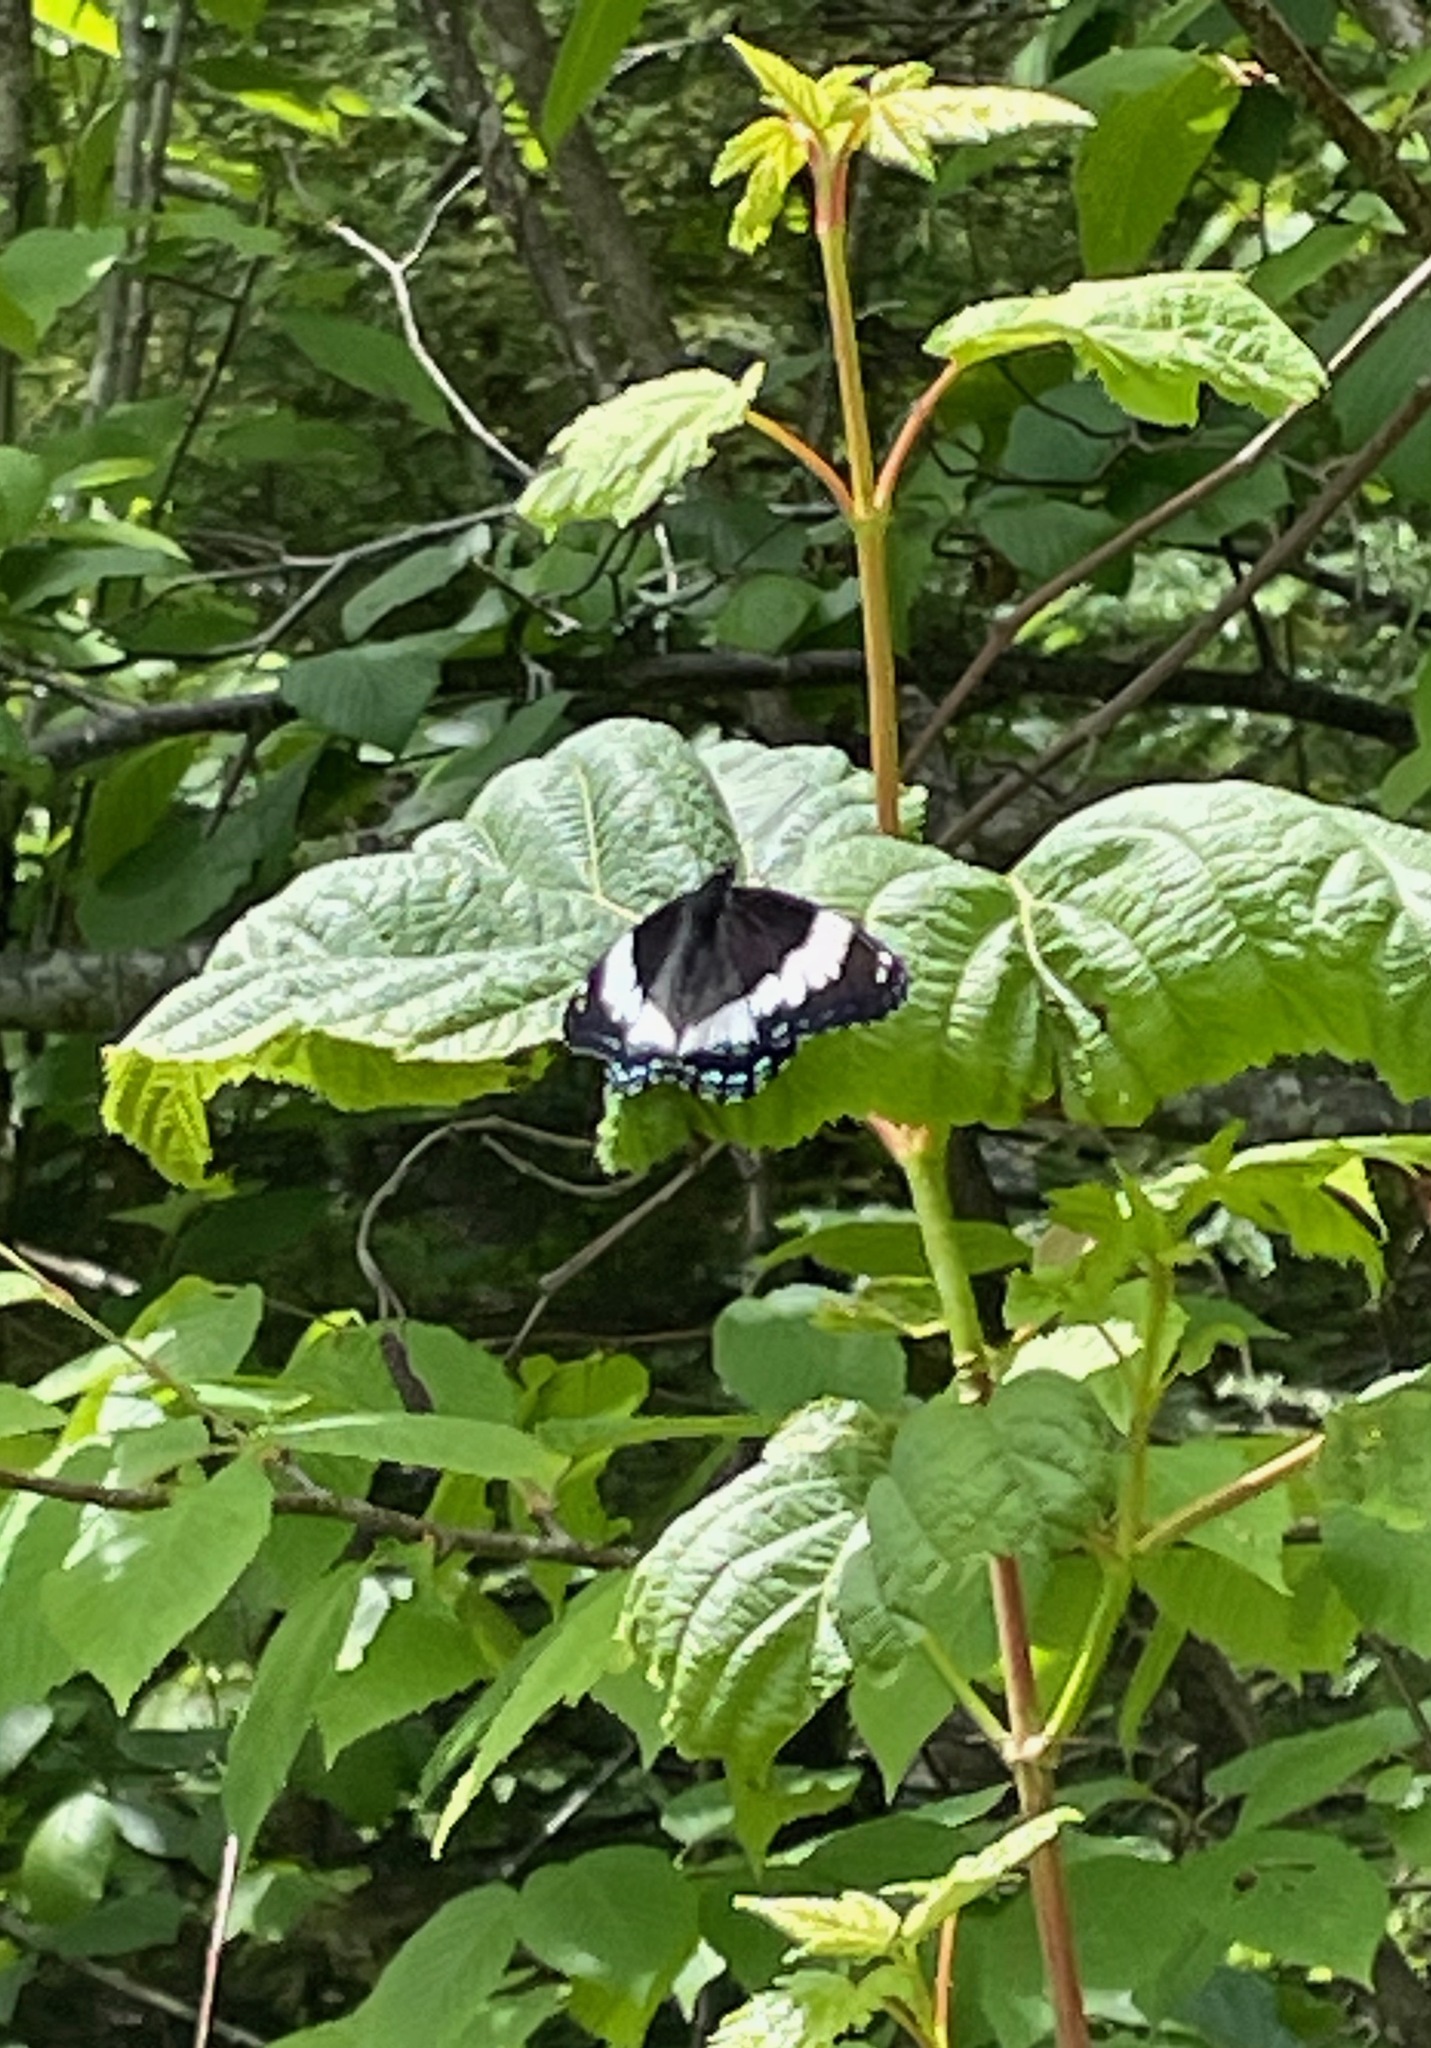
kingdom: Animalia
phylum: Arthropoda
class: Insecta
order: Lepidoptera
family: Nymphalidae
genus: Limenitis
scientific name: Limenitis arthemis
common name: Red-spotted admiral
